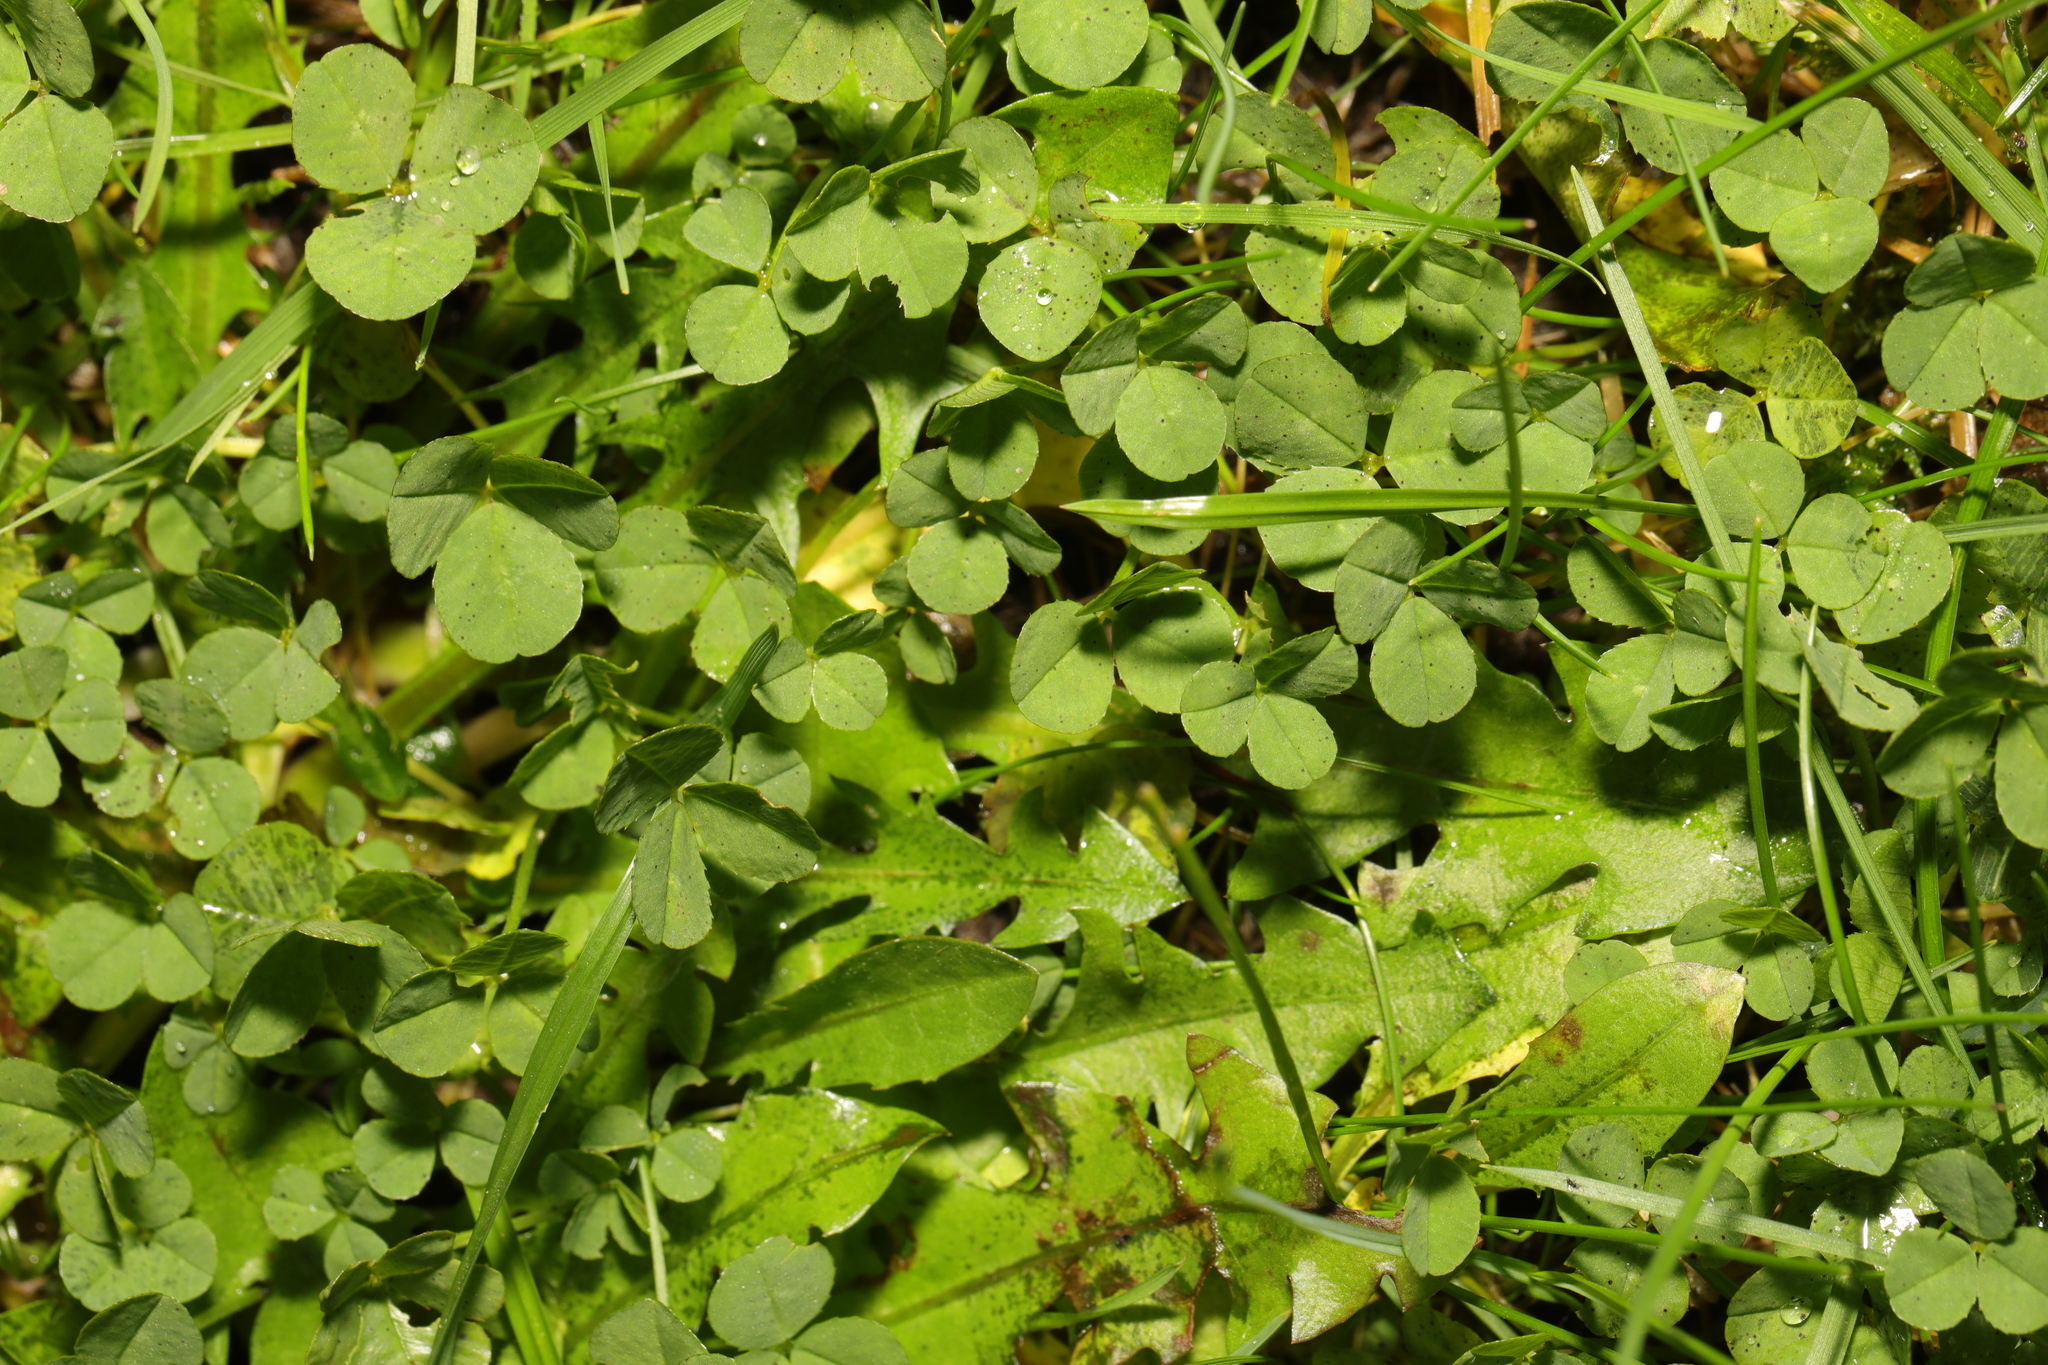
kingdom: Plantae
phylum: Tracheophyta
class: Magnoliopsida
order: Fabales
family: Fabaceae
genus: Trifolium
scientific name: Trifolium repens
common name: White clover
